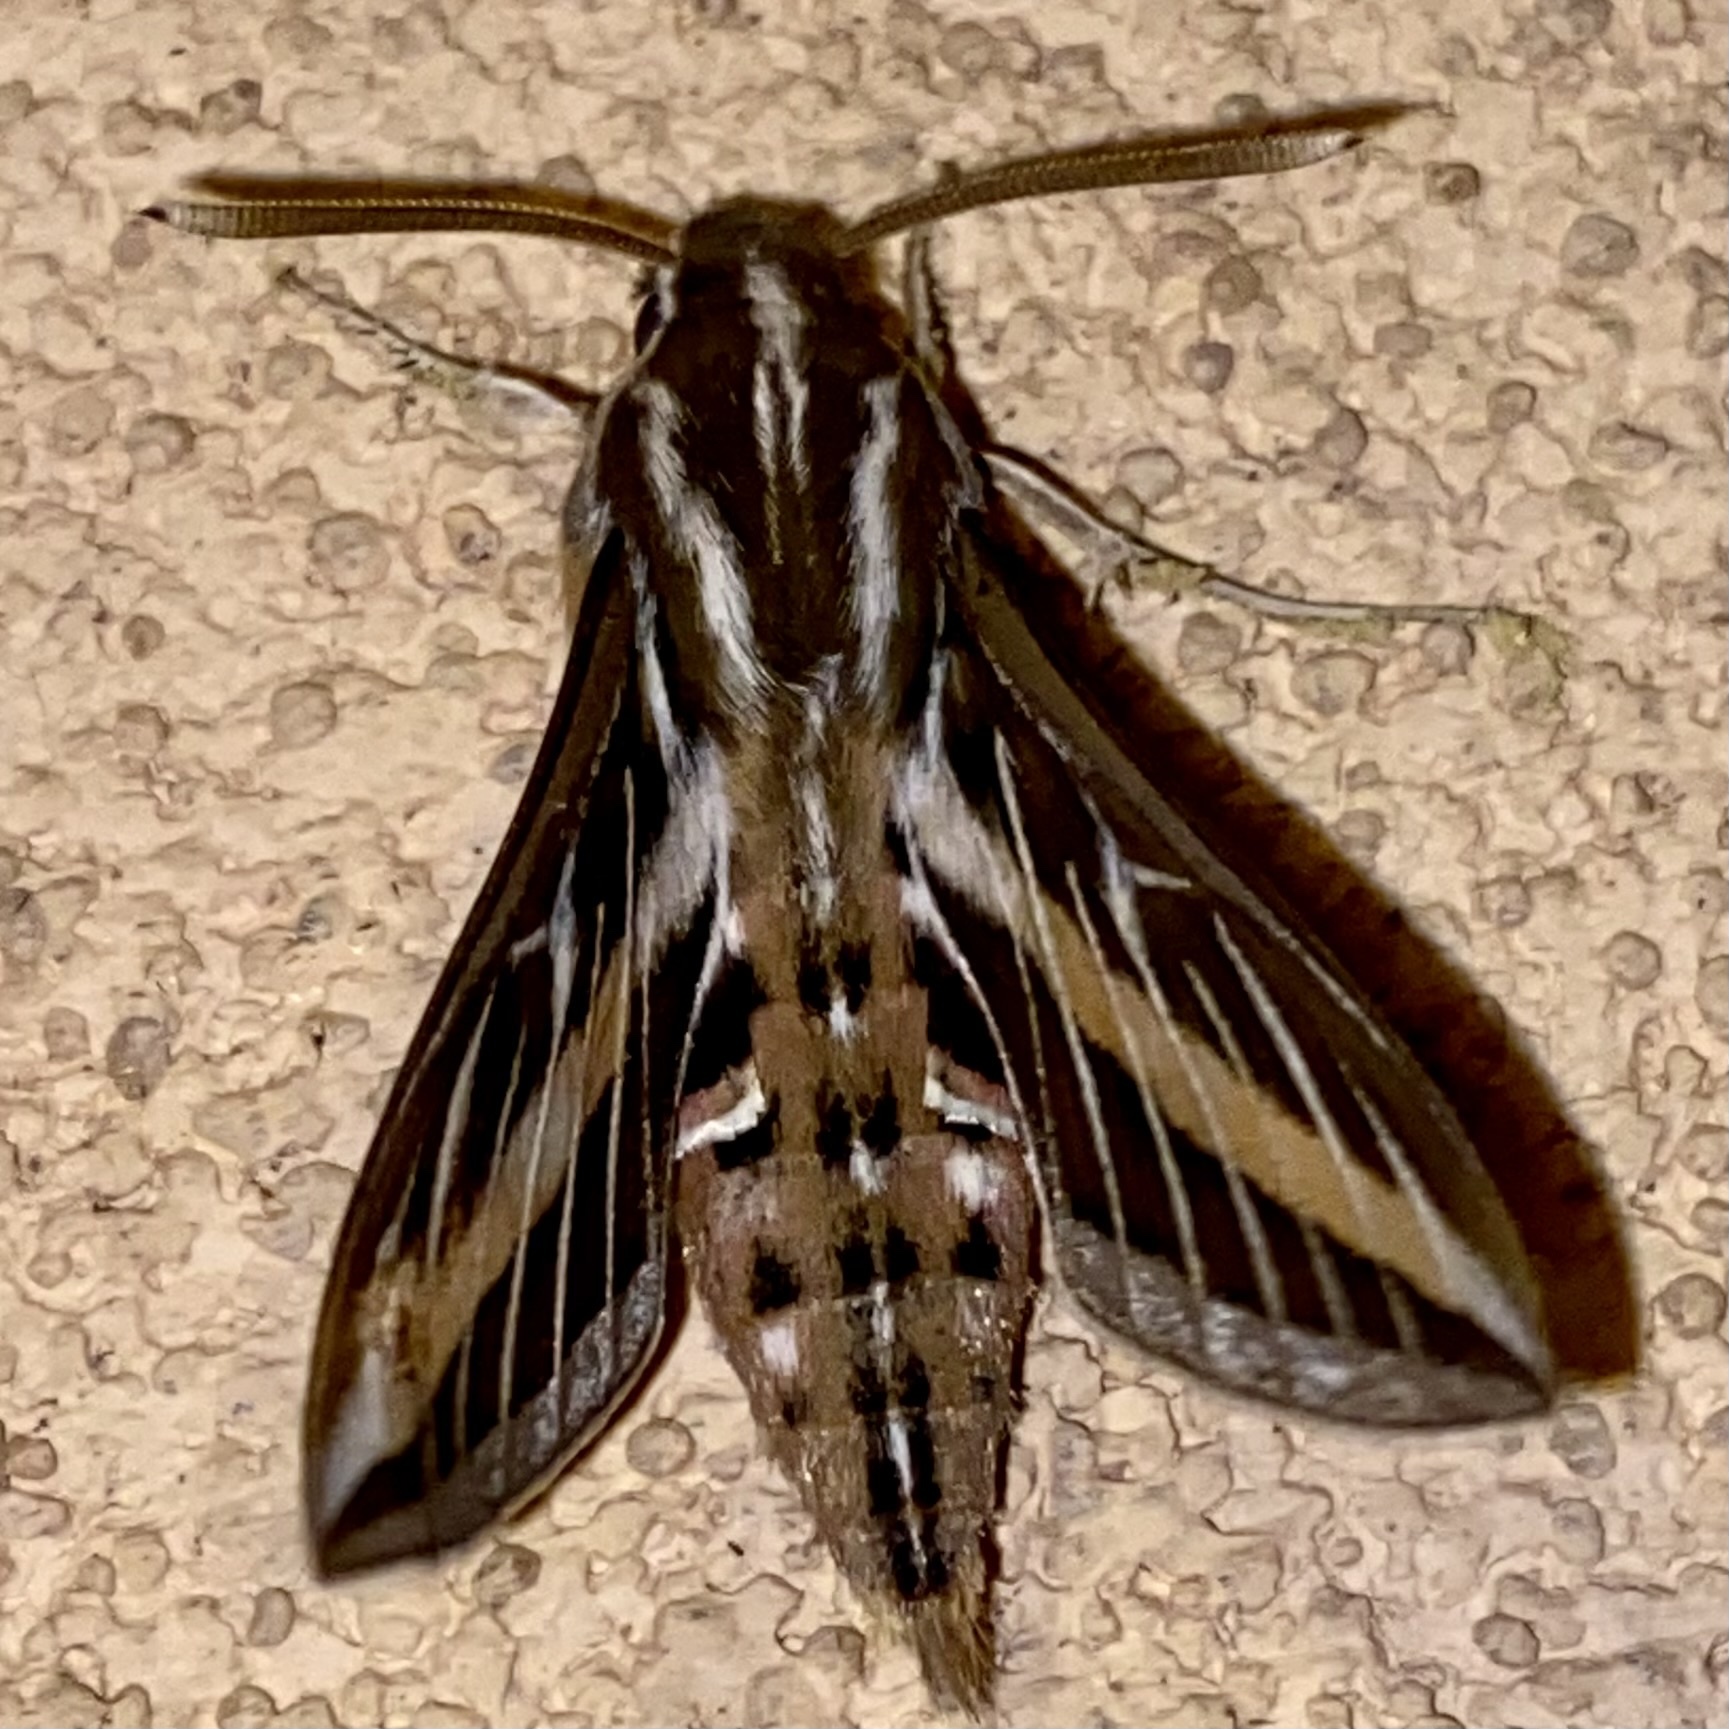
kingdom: Animalia
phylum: Arthropoda
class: Insecta
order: Lepidoptera
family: Sphingidae
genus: Hyles
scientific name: Hyles lineata
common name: White-lined sphinx
